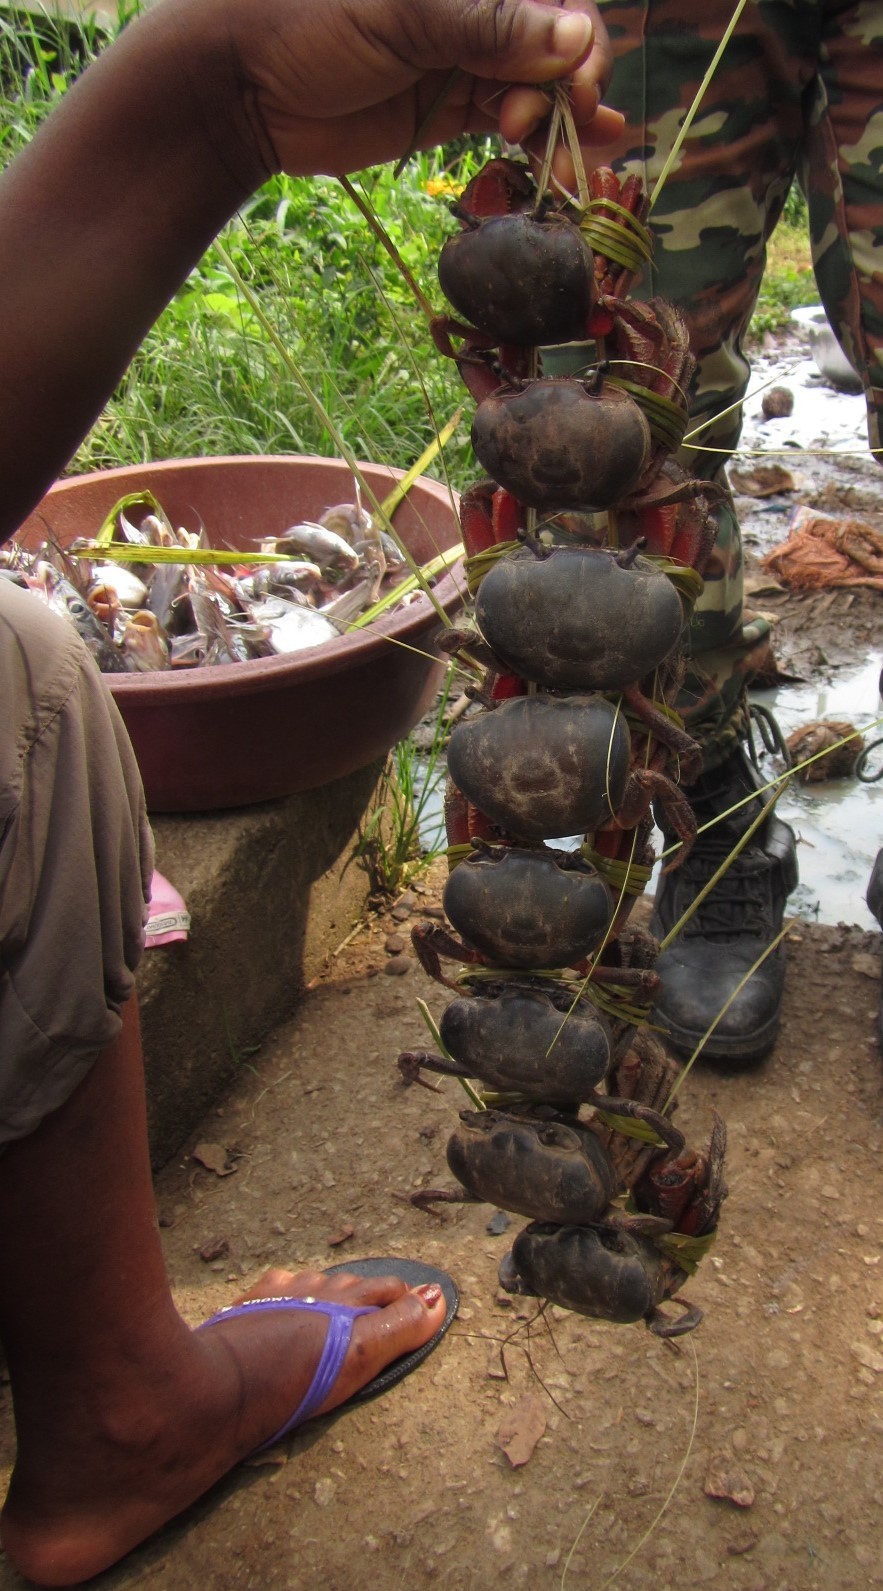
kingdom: Animalia
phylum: Arthropoda
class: Malacostraca
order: Decapoda
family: Gecarcinidae
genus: Cardisoma
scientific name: Cardisoma armatum
